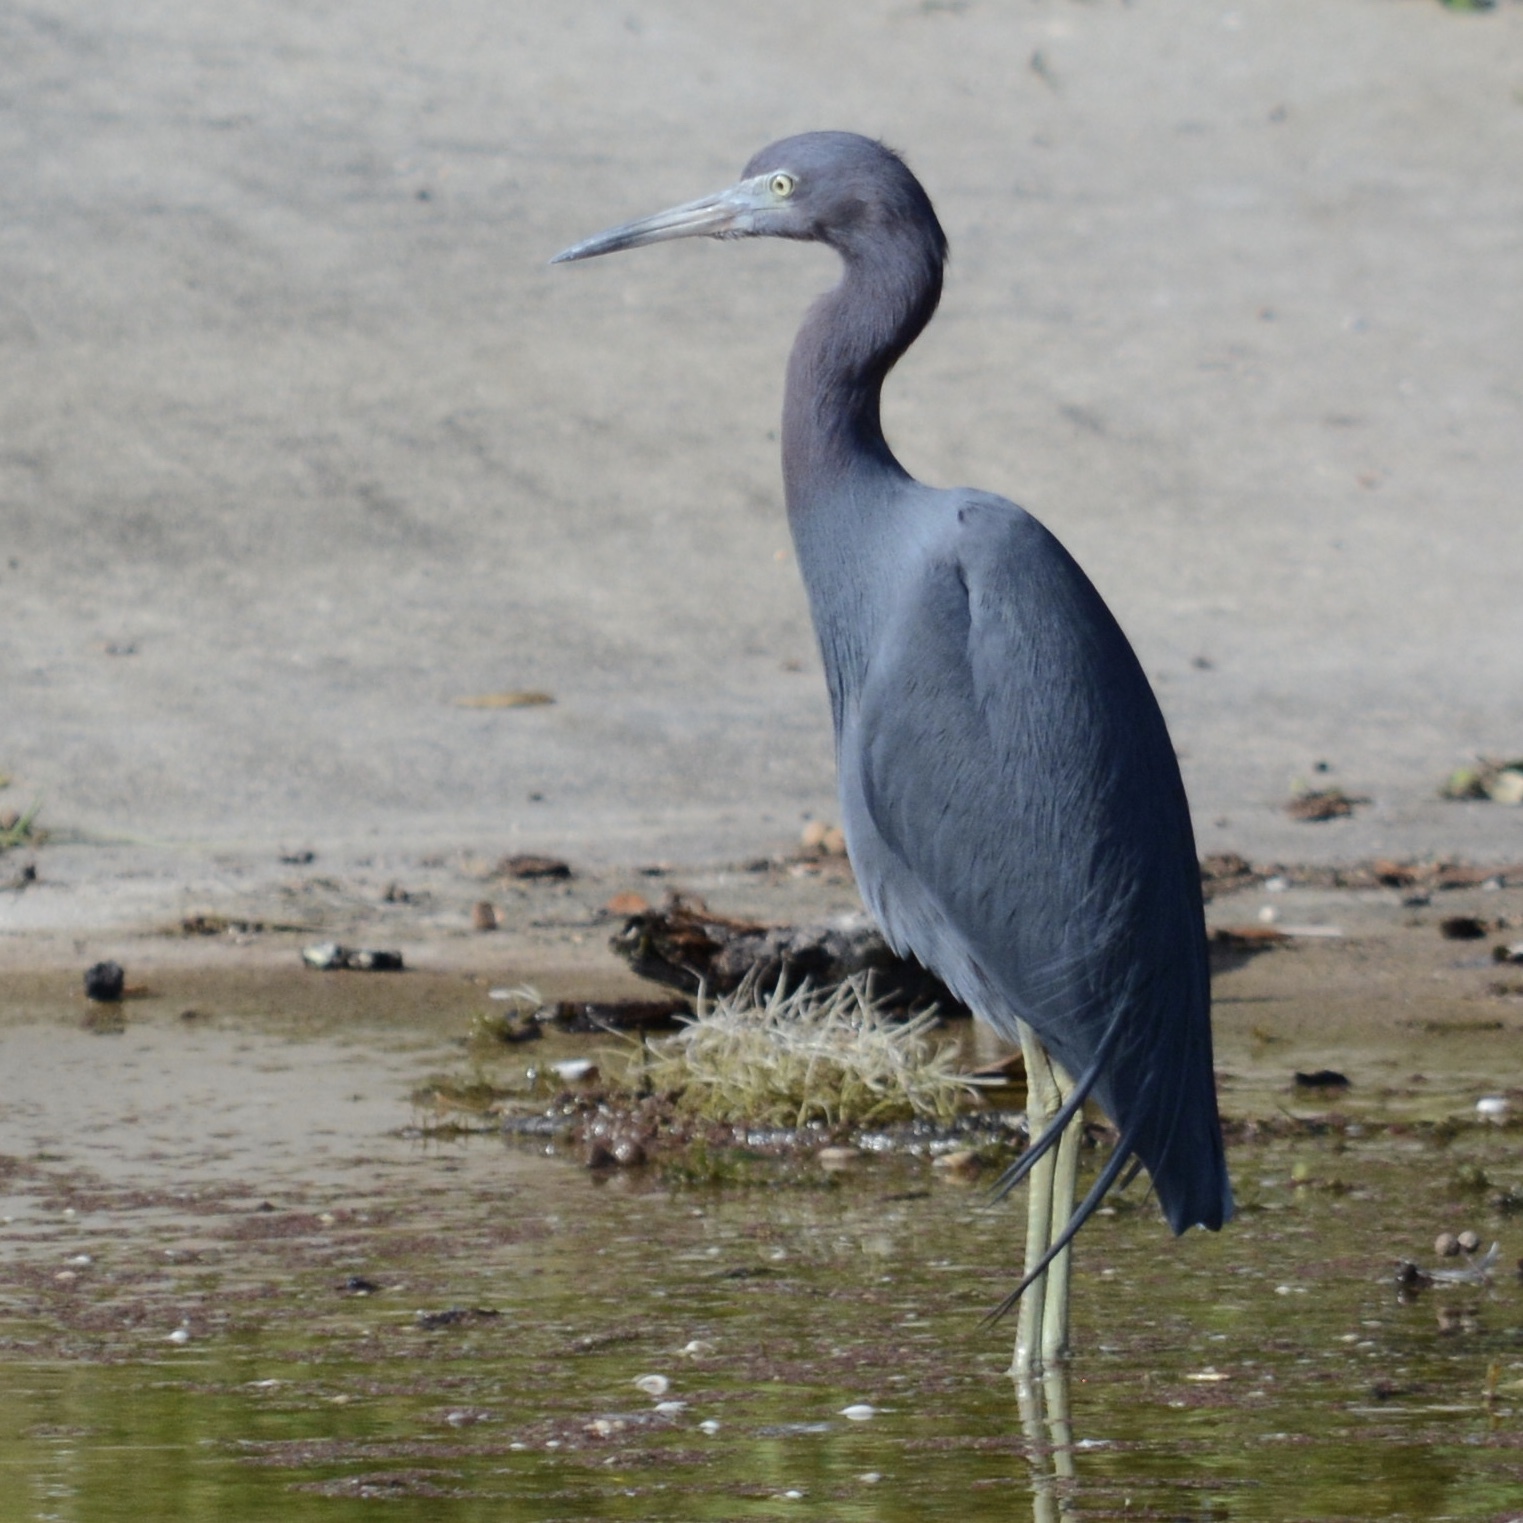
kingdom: Animalia
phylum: Chordata
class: Aves
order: Pelecaniformes
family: Ardeidae
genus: Egretta
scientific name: Egretta caerulea
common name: Little blue heron
